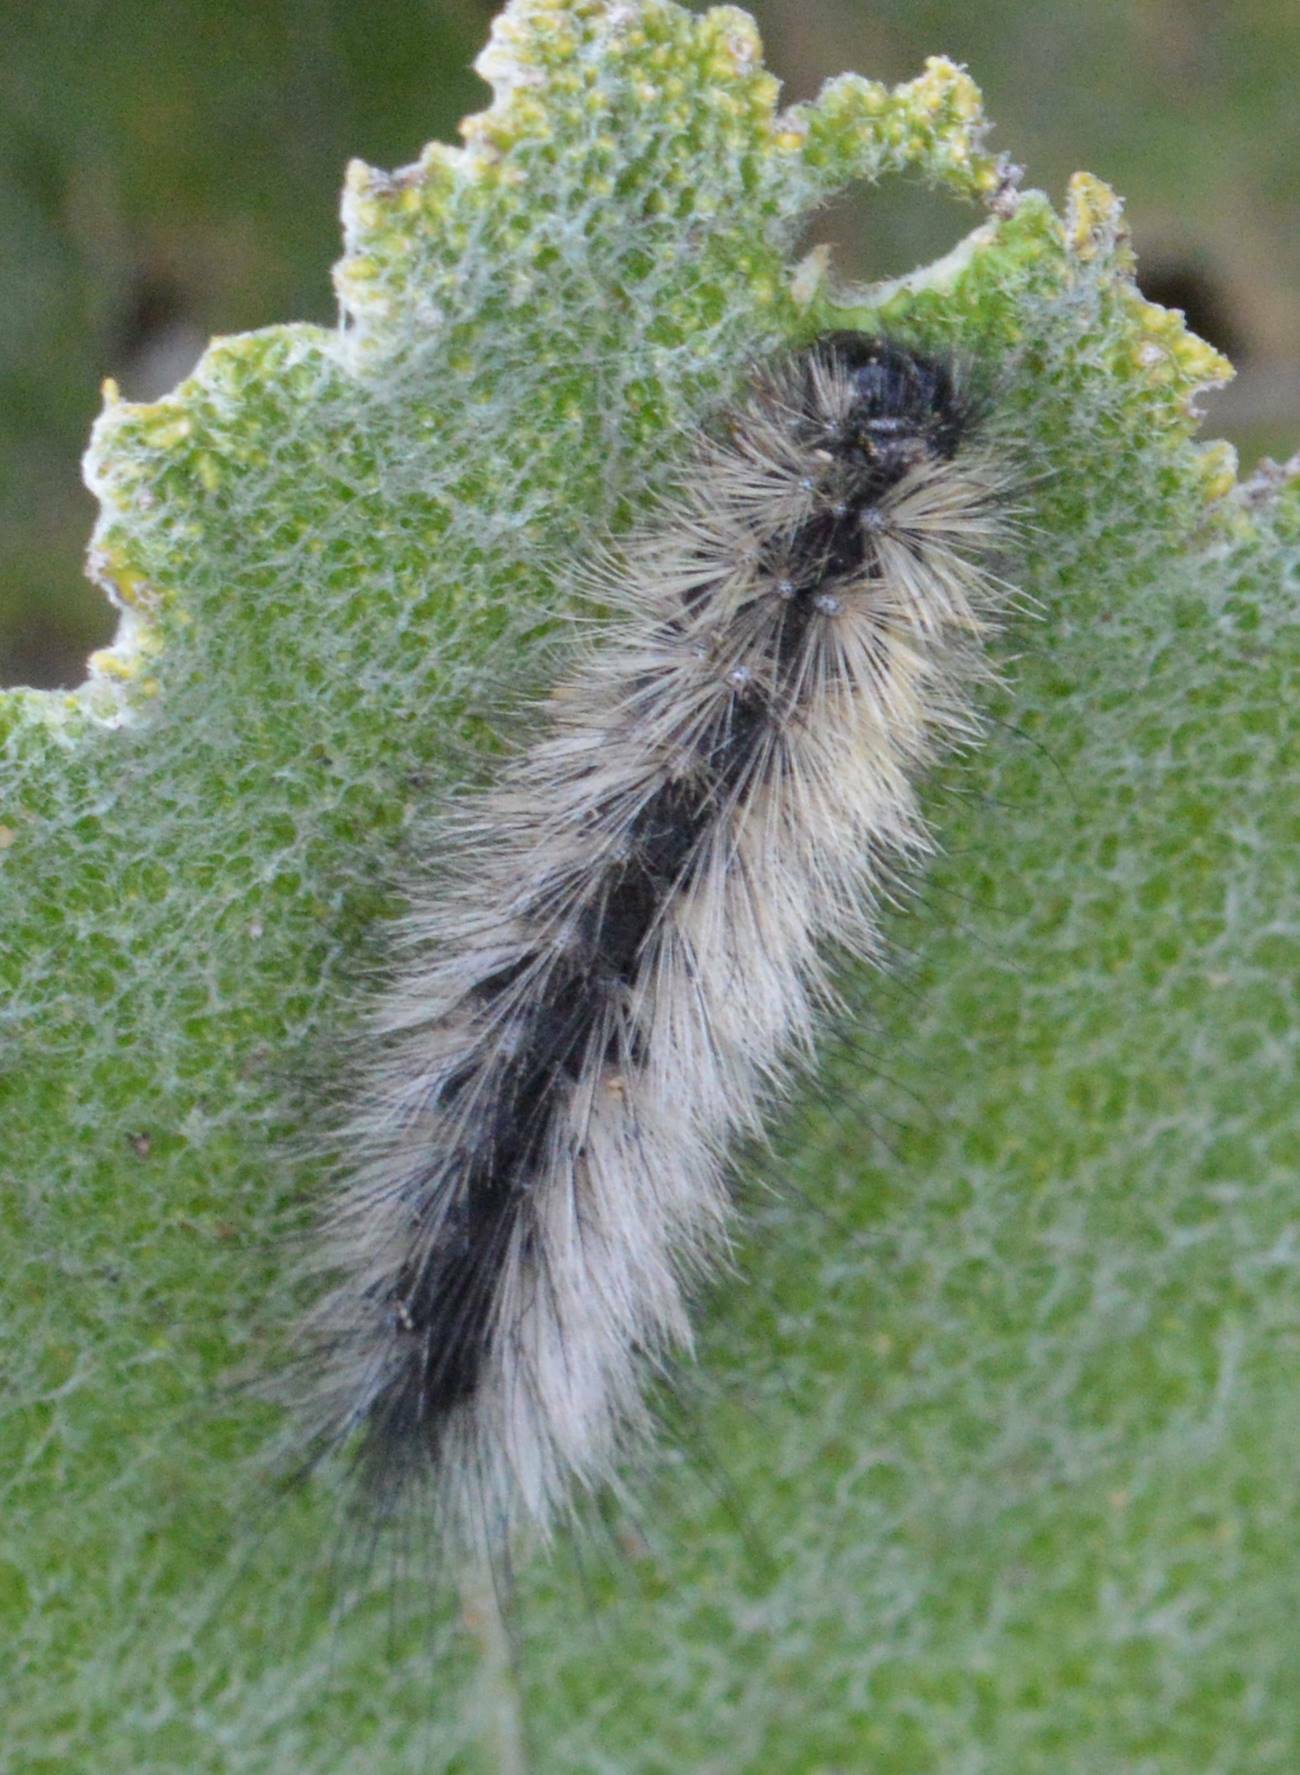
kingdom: Animalia
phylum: Arthropoda
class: Insecta
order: Lepidoptera
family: Erebidae
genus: Ocnogyna
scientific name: Ocnogyna boeticum
